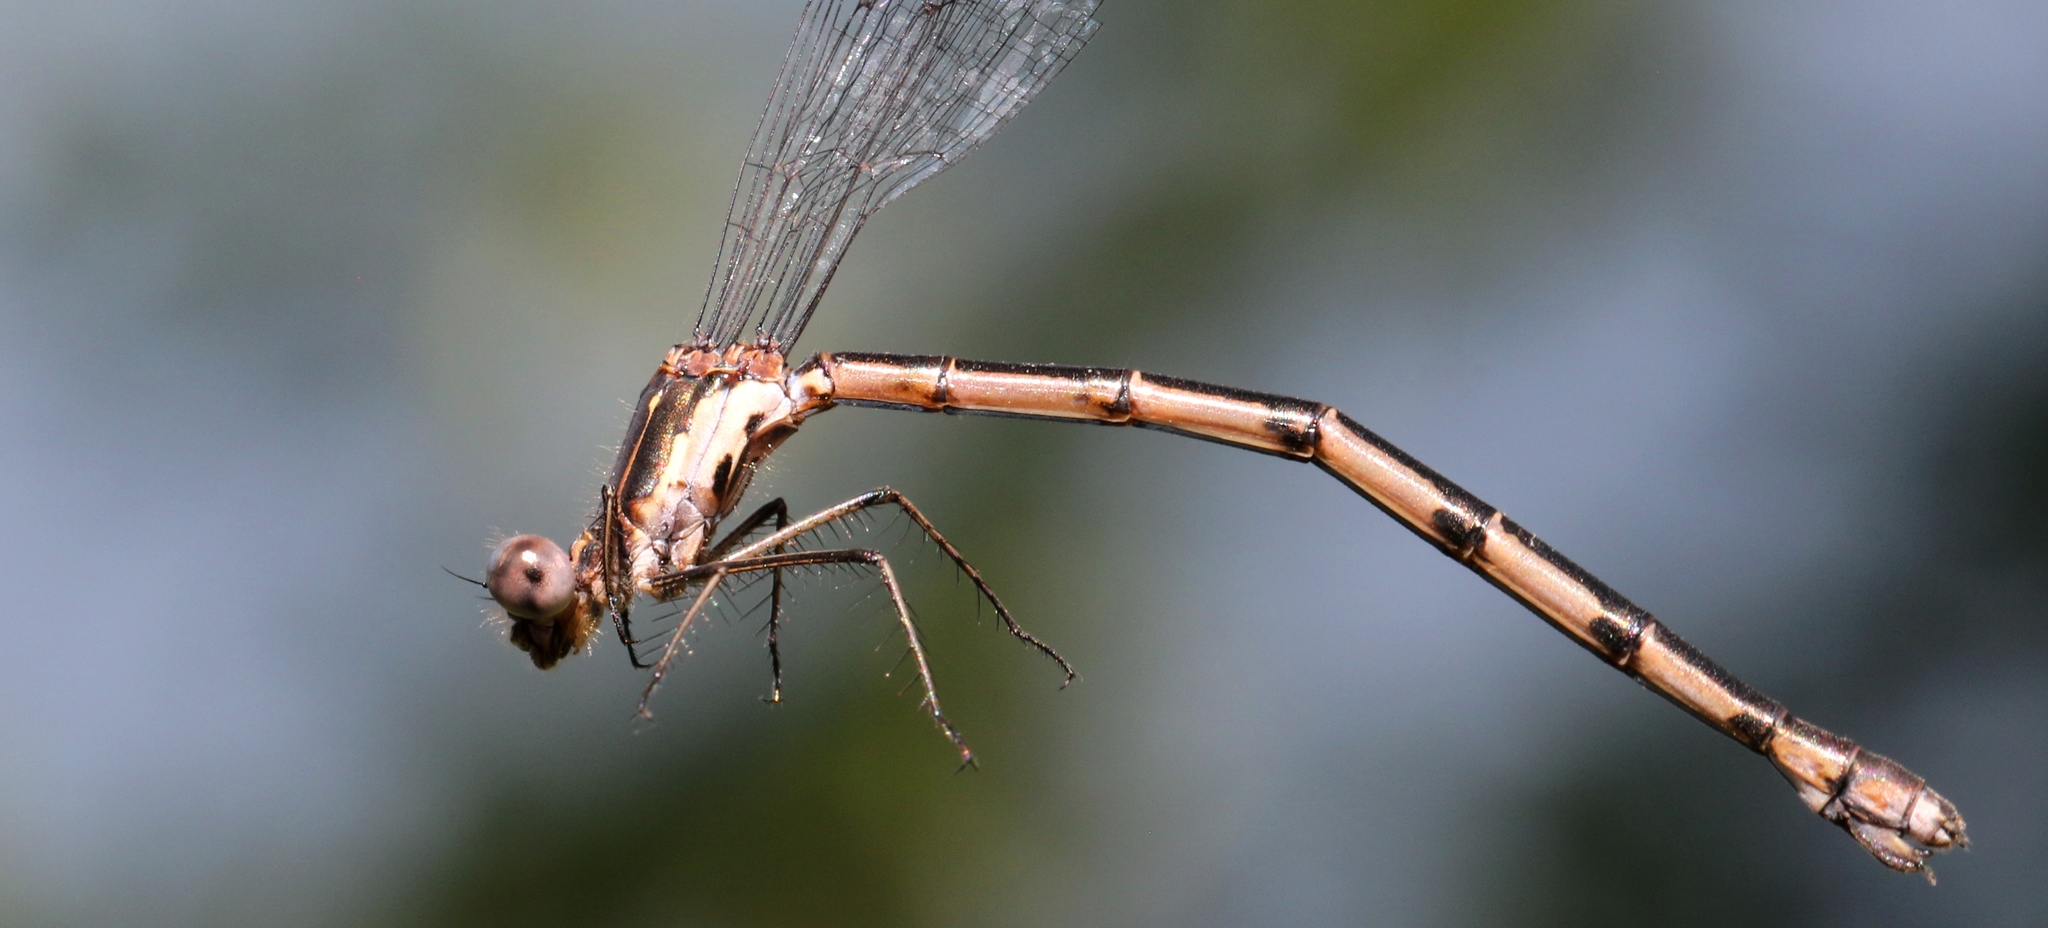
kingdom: Animalia
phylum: Arthropoda
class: Insecta
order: Odonata
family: Lestidae
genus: Lestes
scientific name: Lestes congener
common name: Spotted spreadwing
